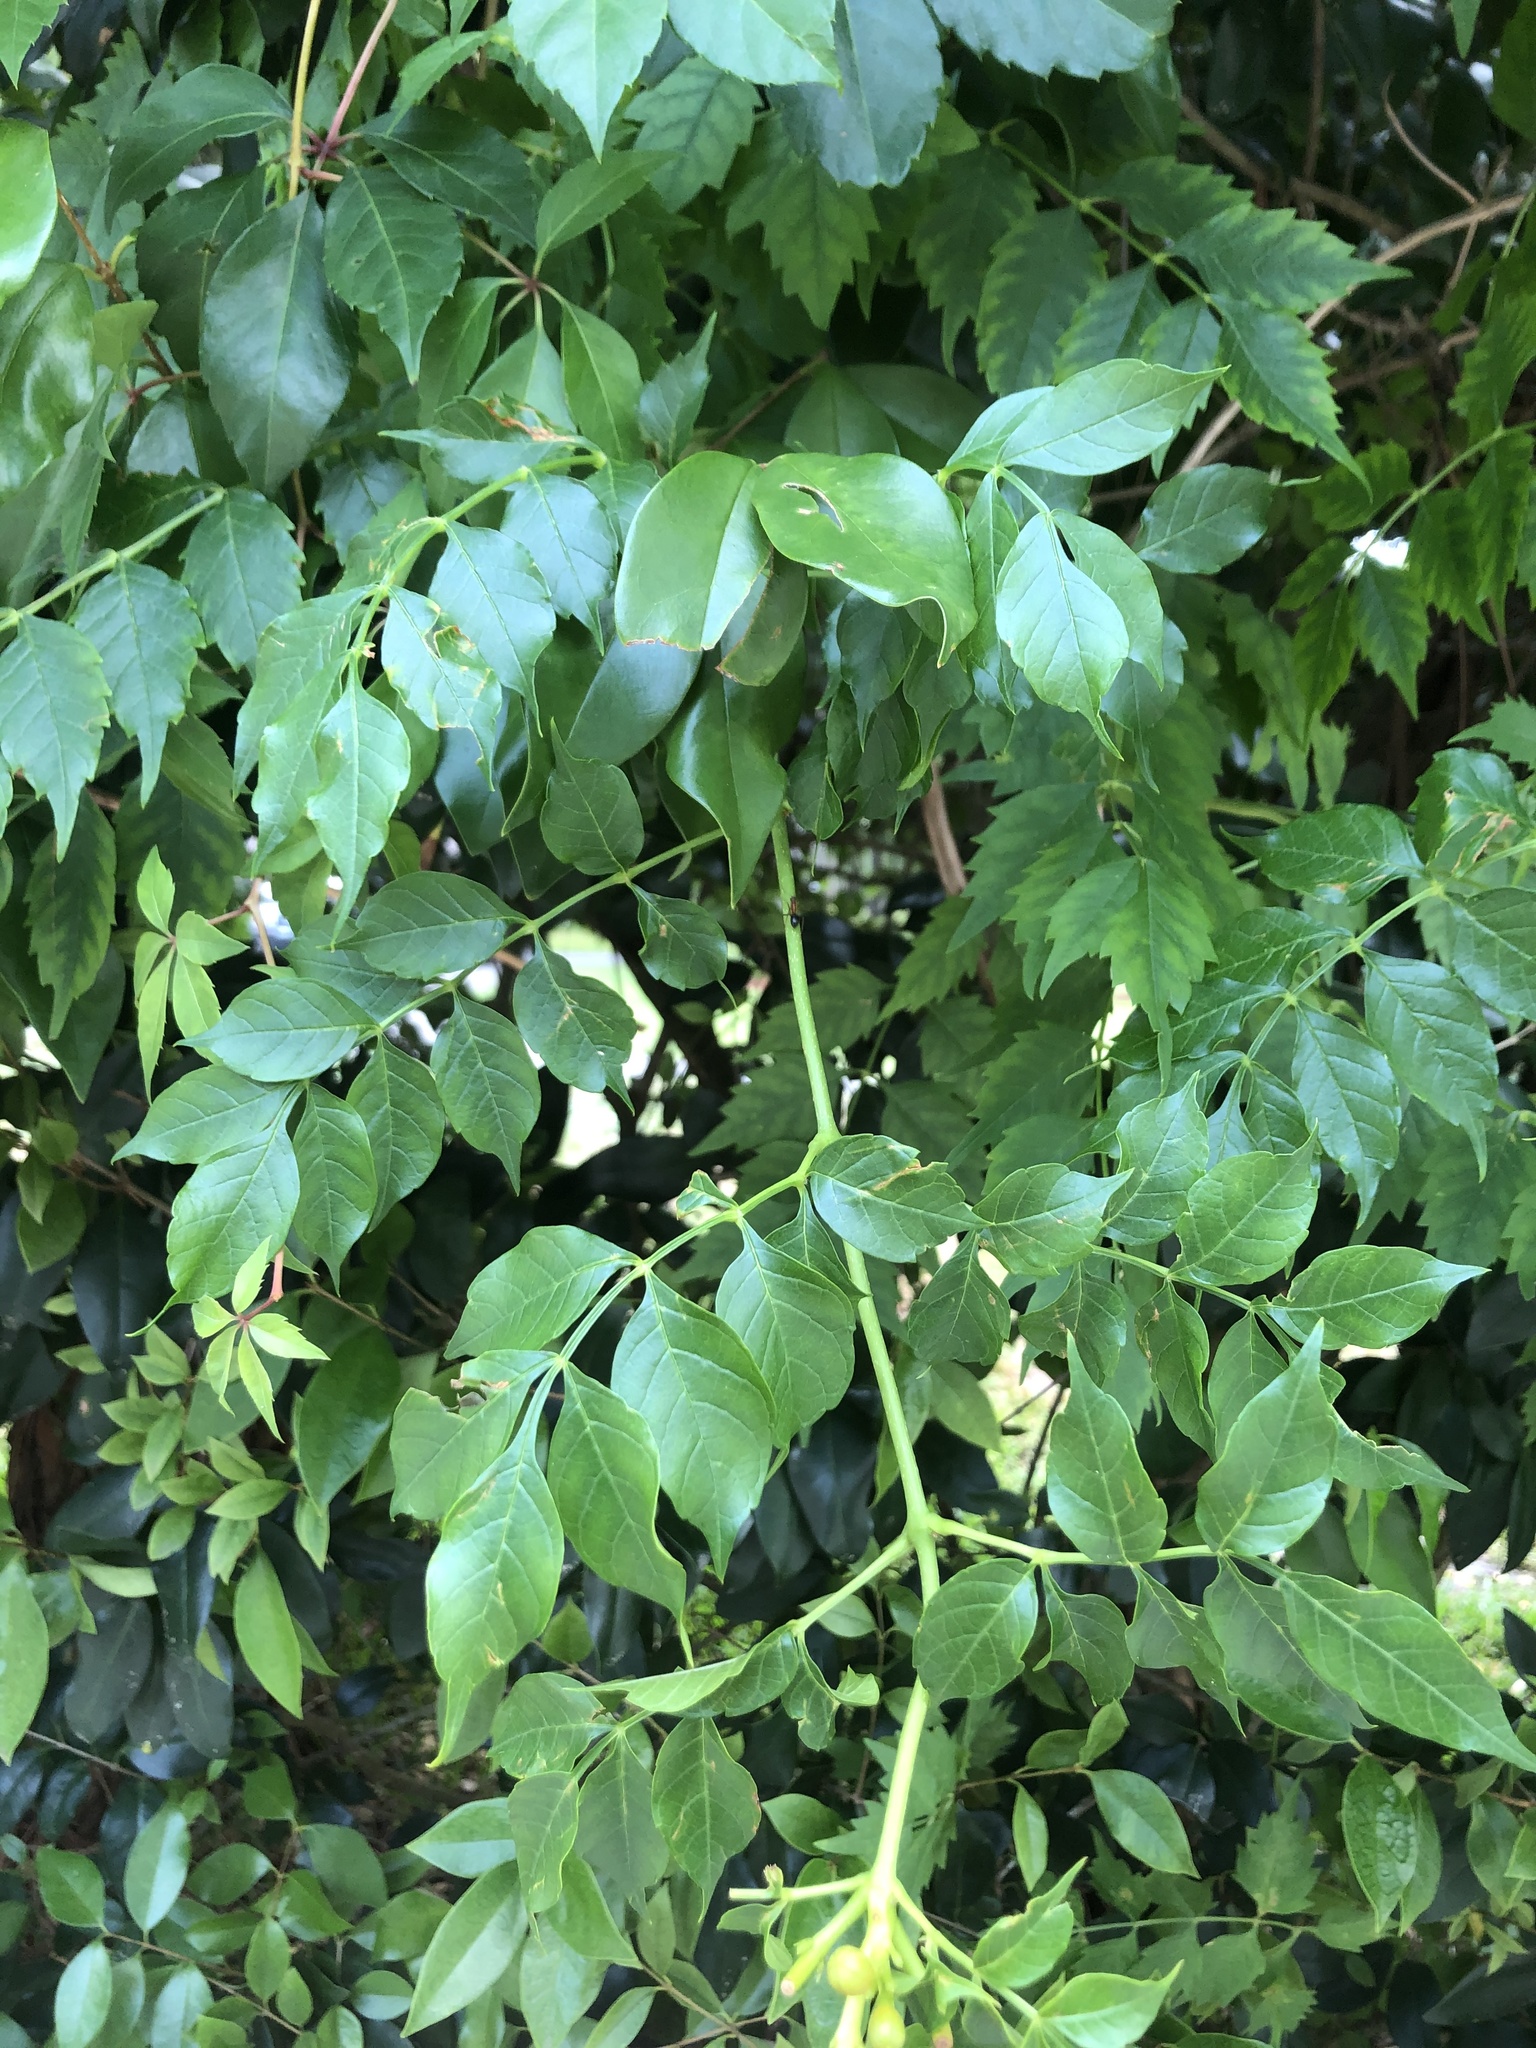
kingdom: Plantae
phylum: Tracheophyta
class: Magnoliopsida
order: Lamiales
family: Bignoniaceae
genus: Campsis
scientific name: Campsis radicans
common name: Trumpet-creeper
